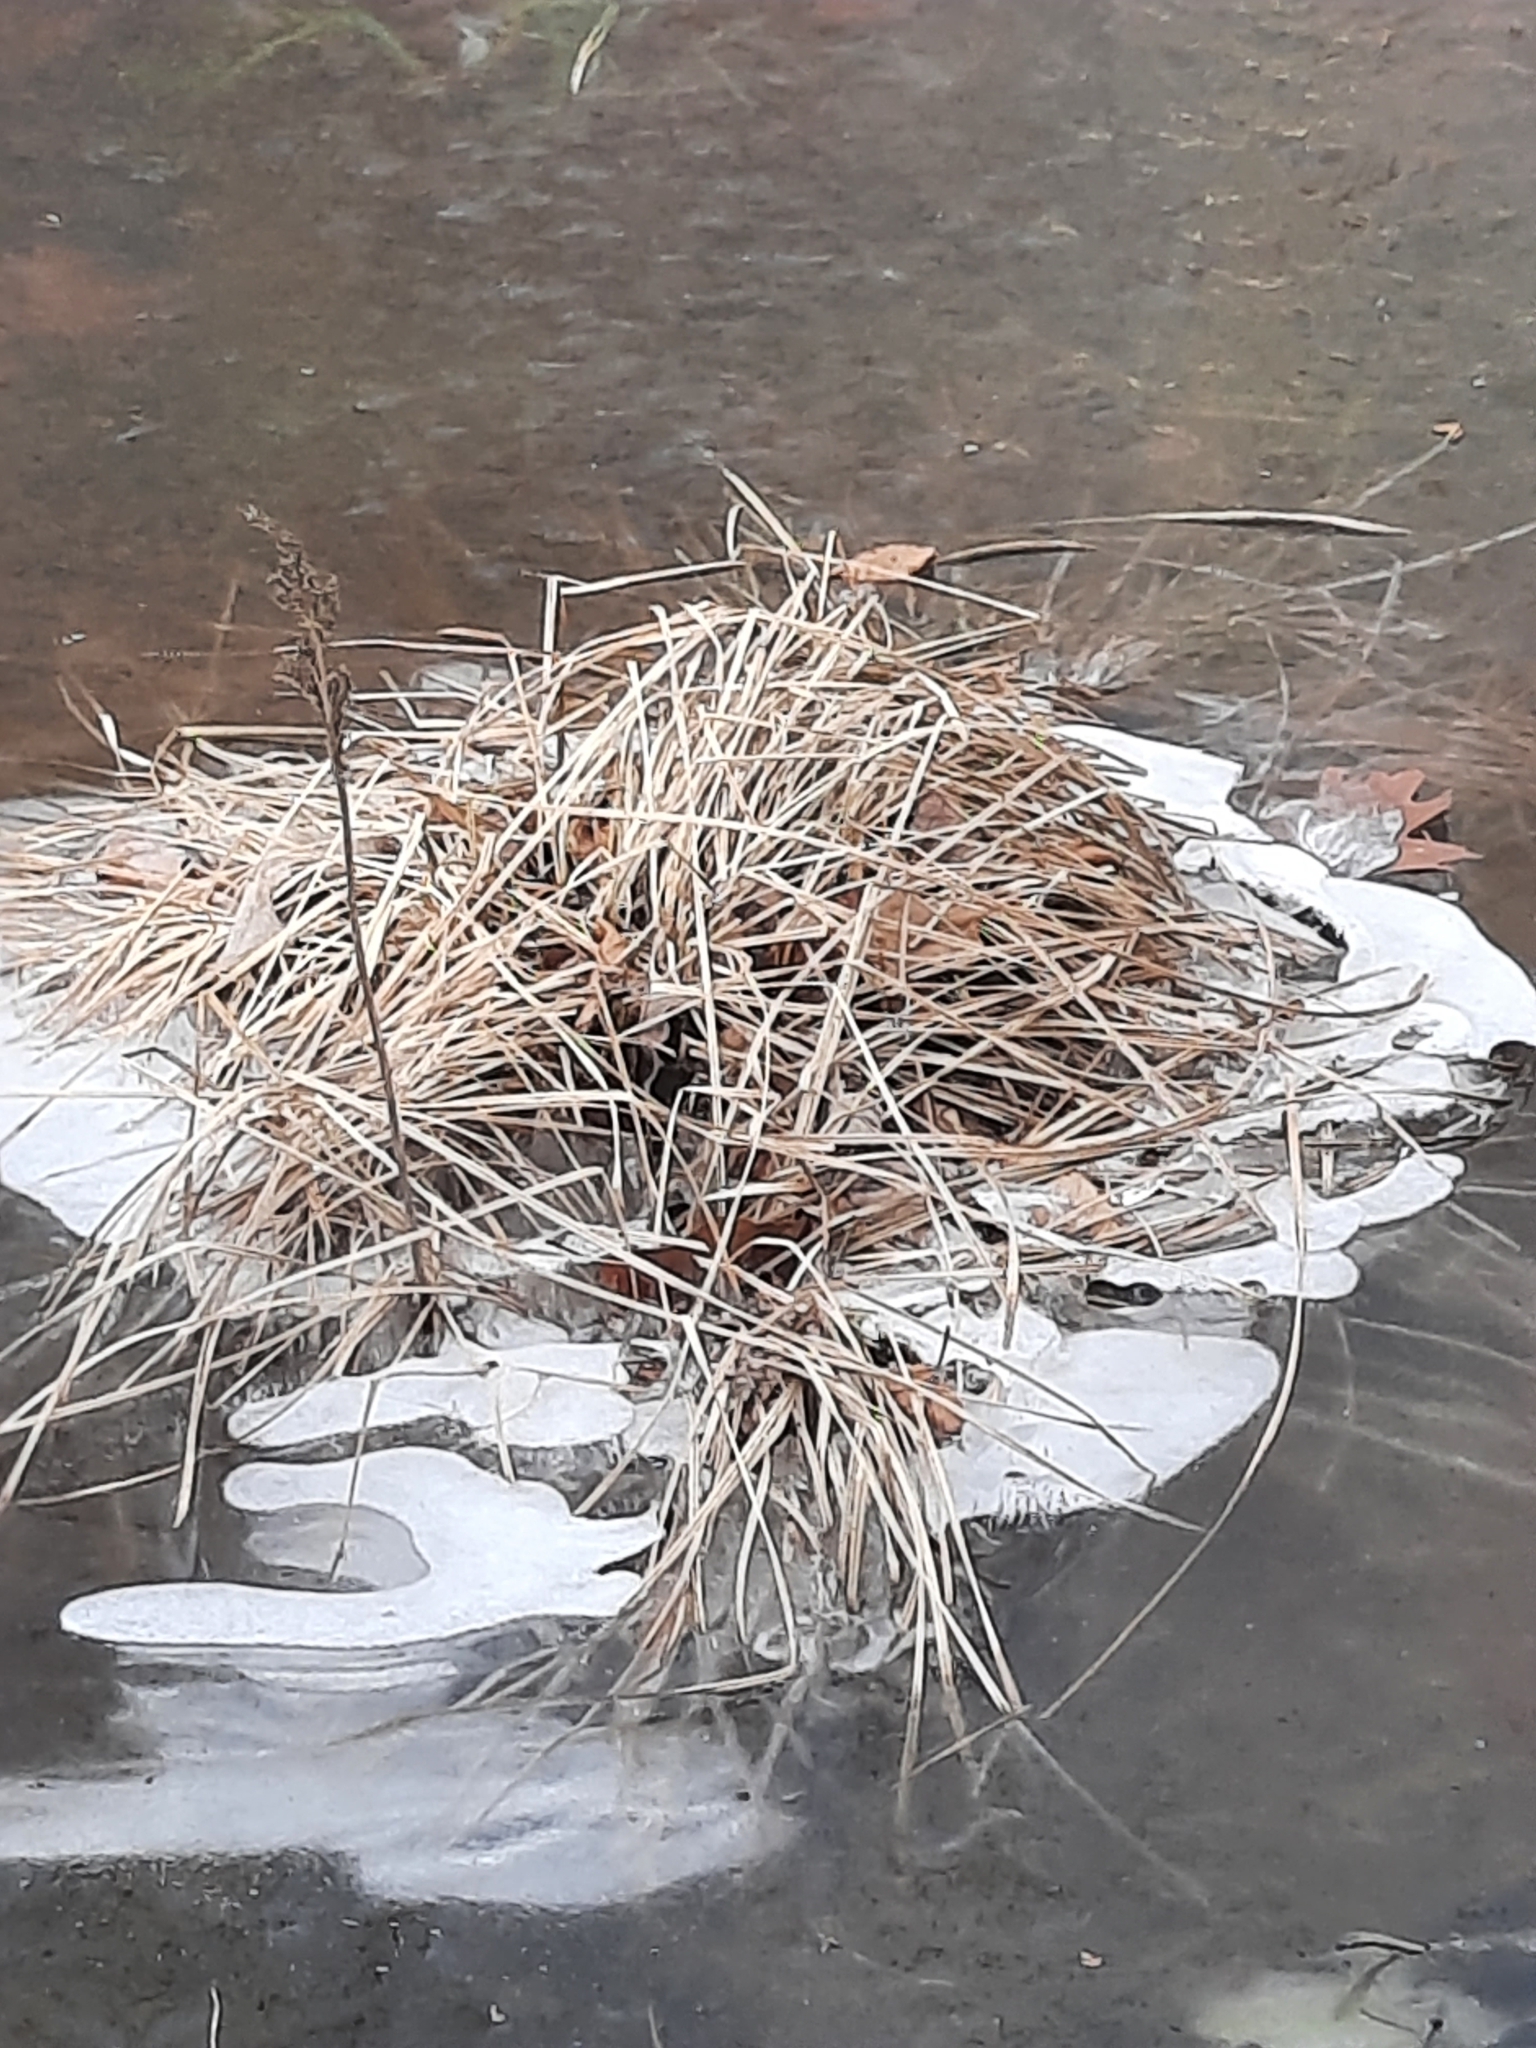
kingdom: Plantae
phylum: Tracheophyta
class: Liliopsida
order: Poales
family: Cyperaceae
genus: Carex
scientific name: Carex stricta
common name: Hummock sedge
